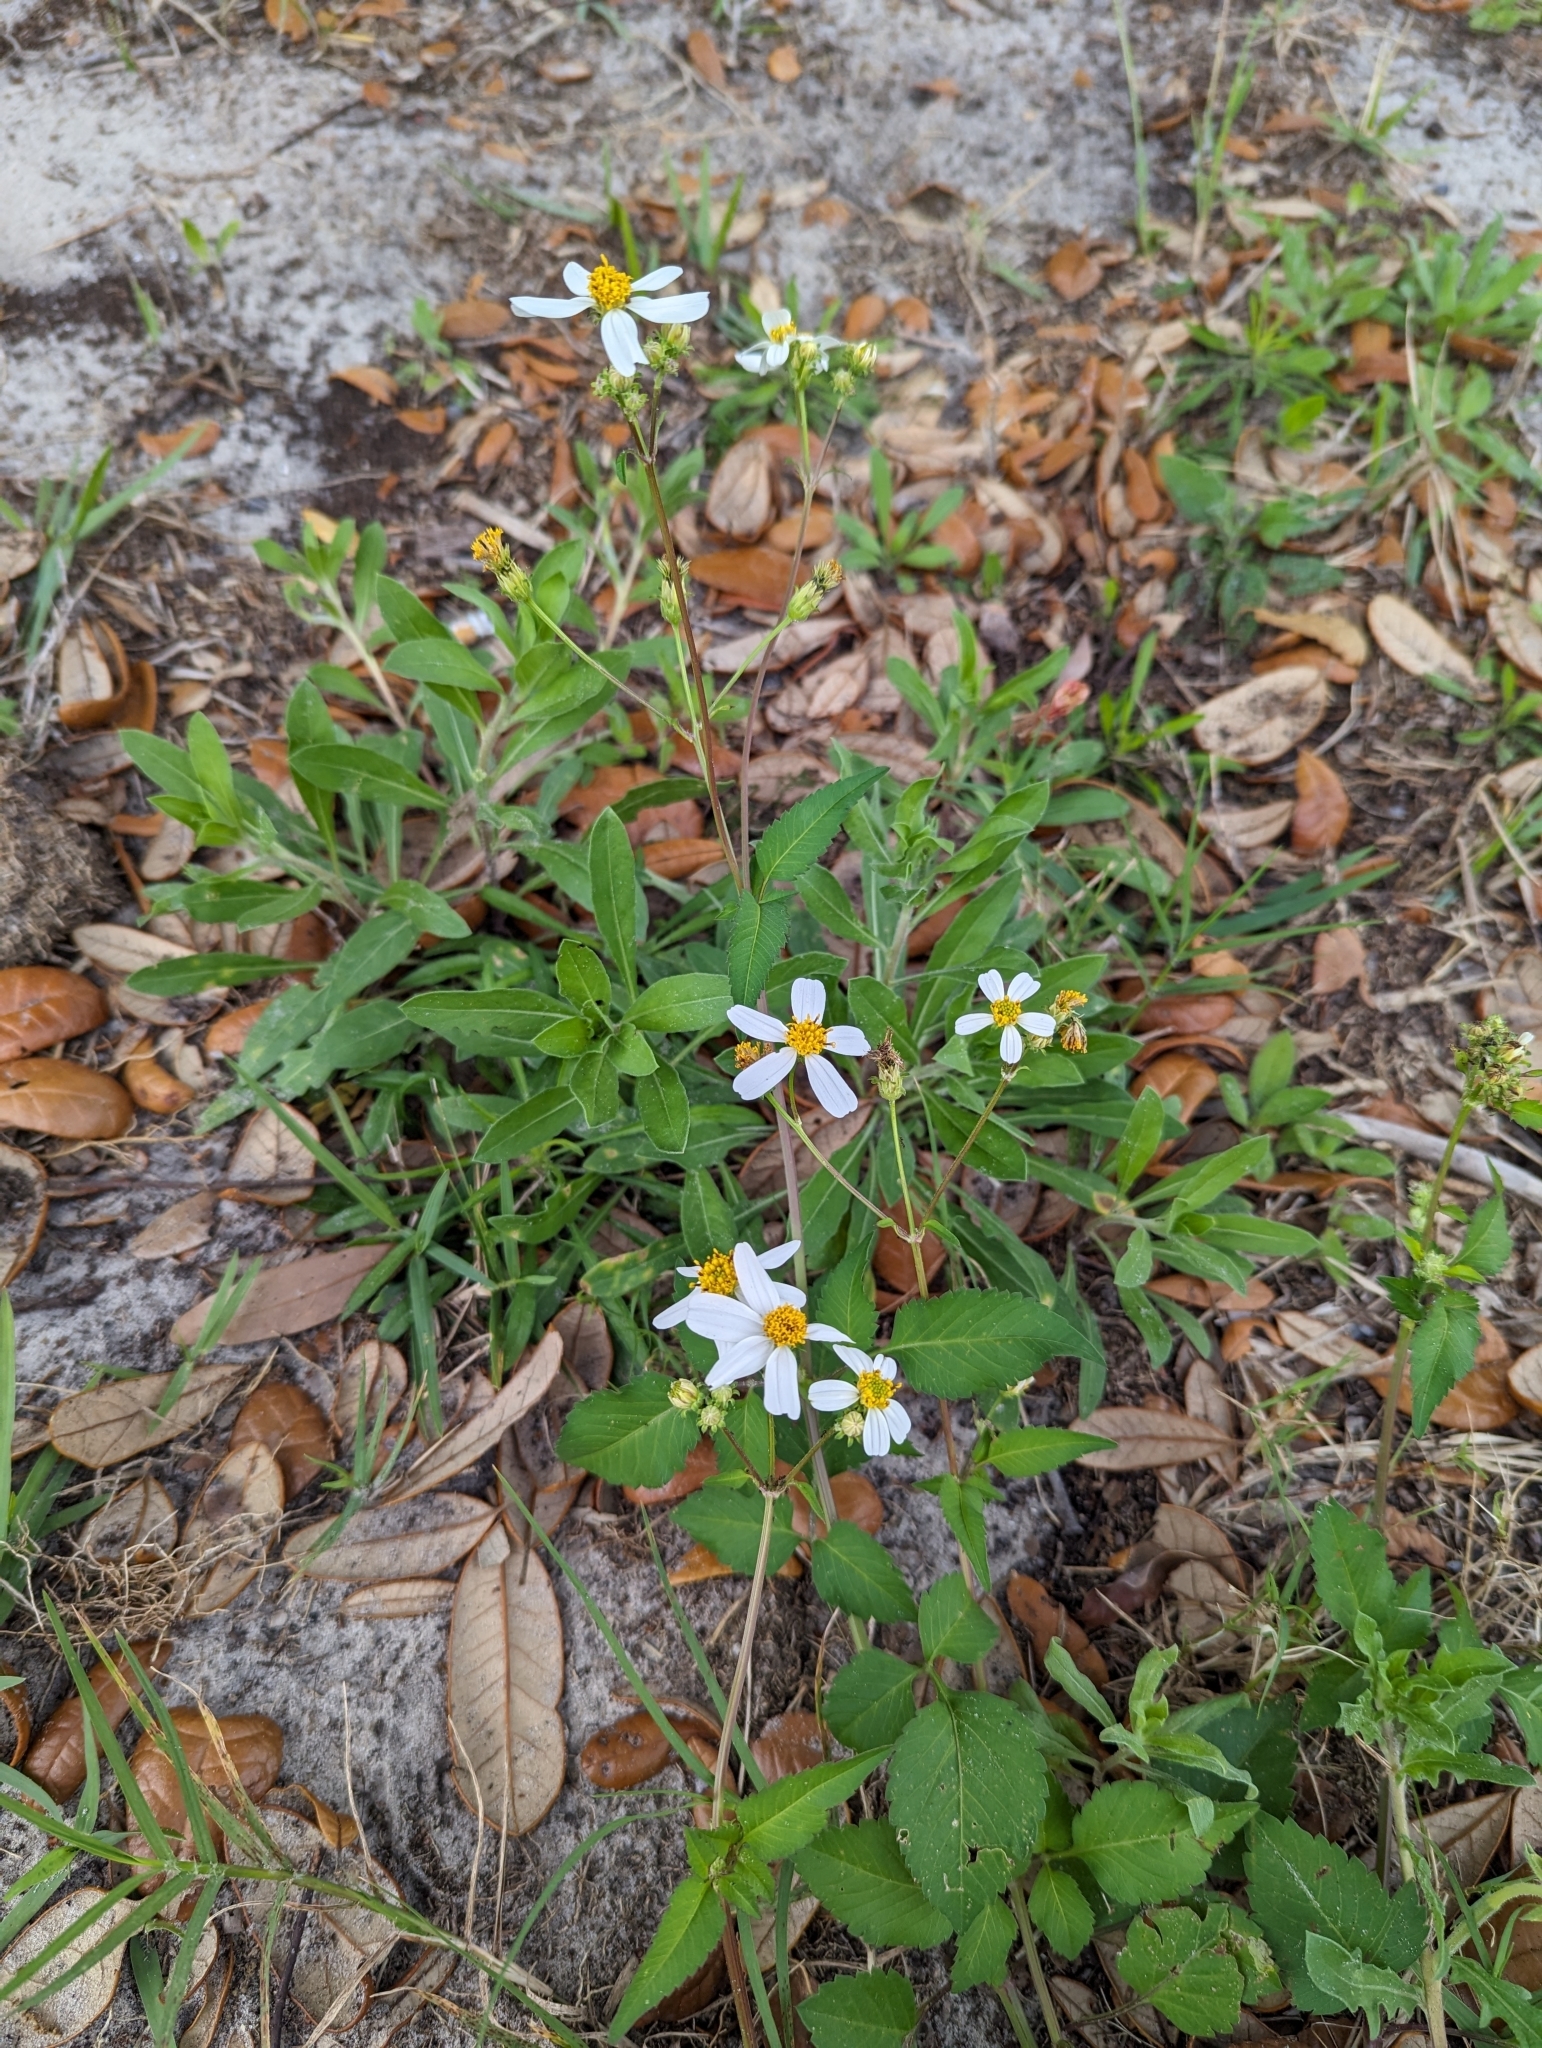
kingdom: Plantae
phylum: Tracheophyta
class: Magnoliopsida
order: Asterales
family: Asteraceae
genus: Bidens
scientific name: Bidens alba
